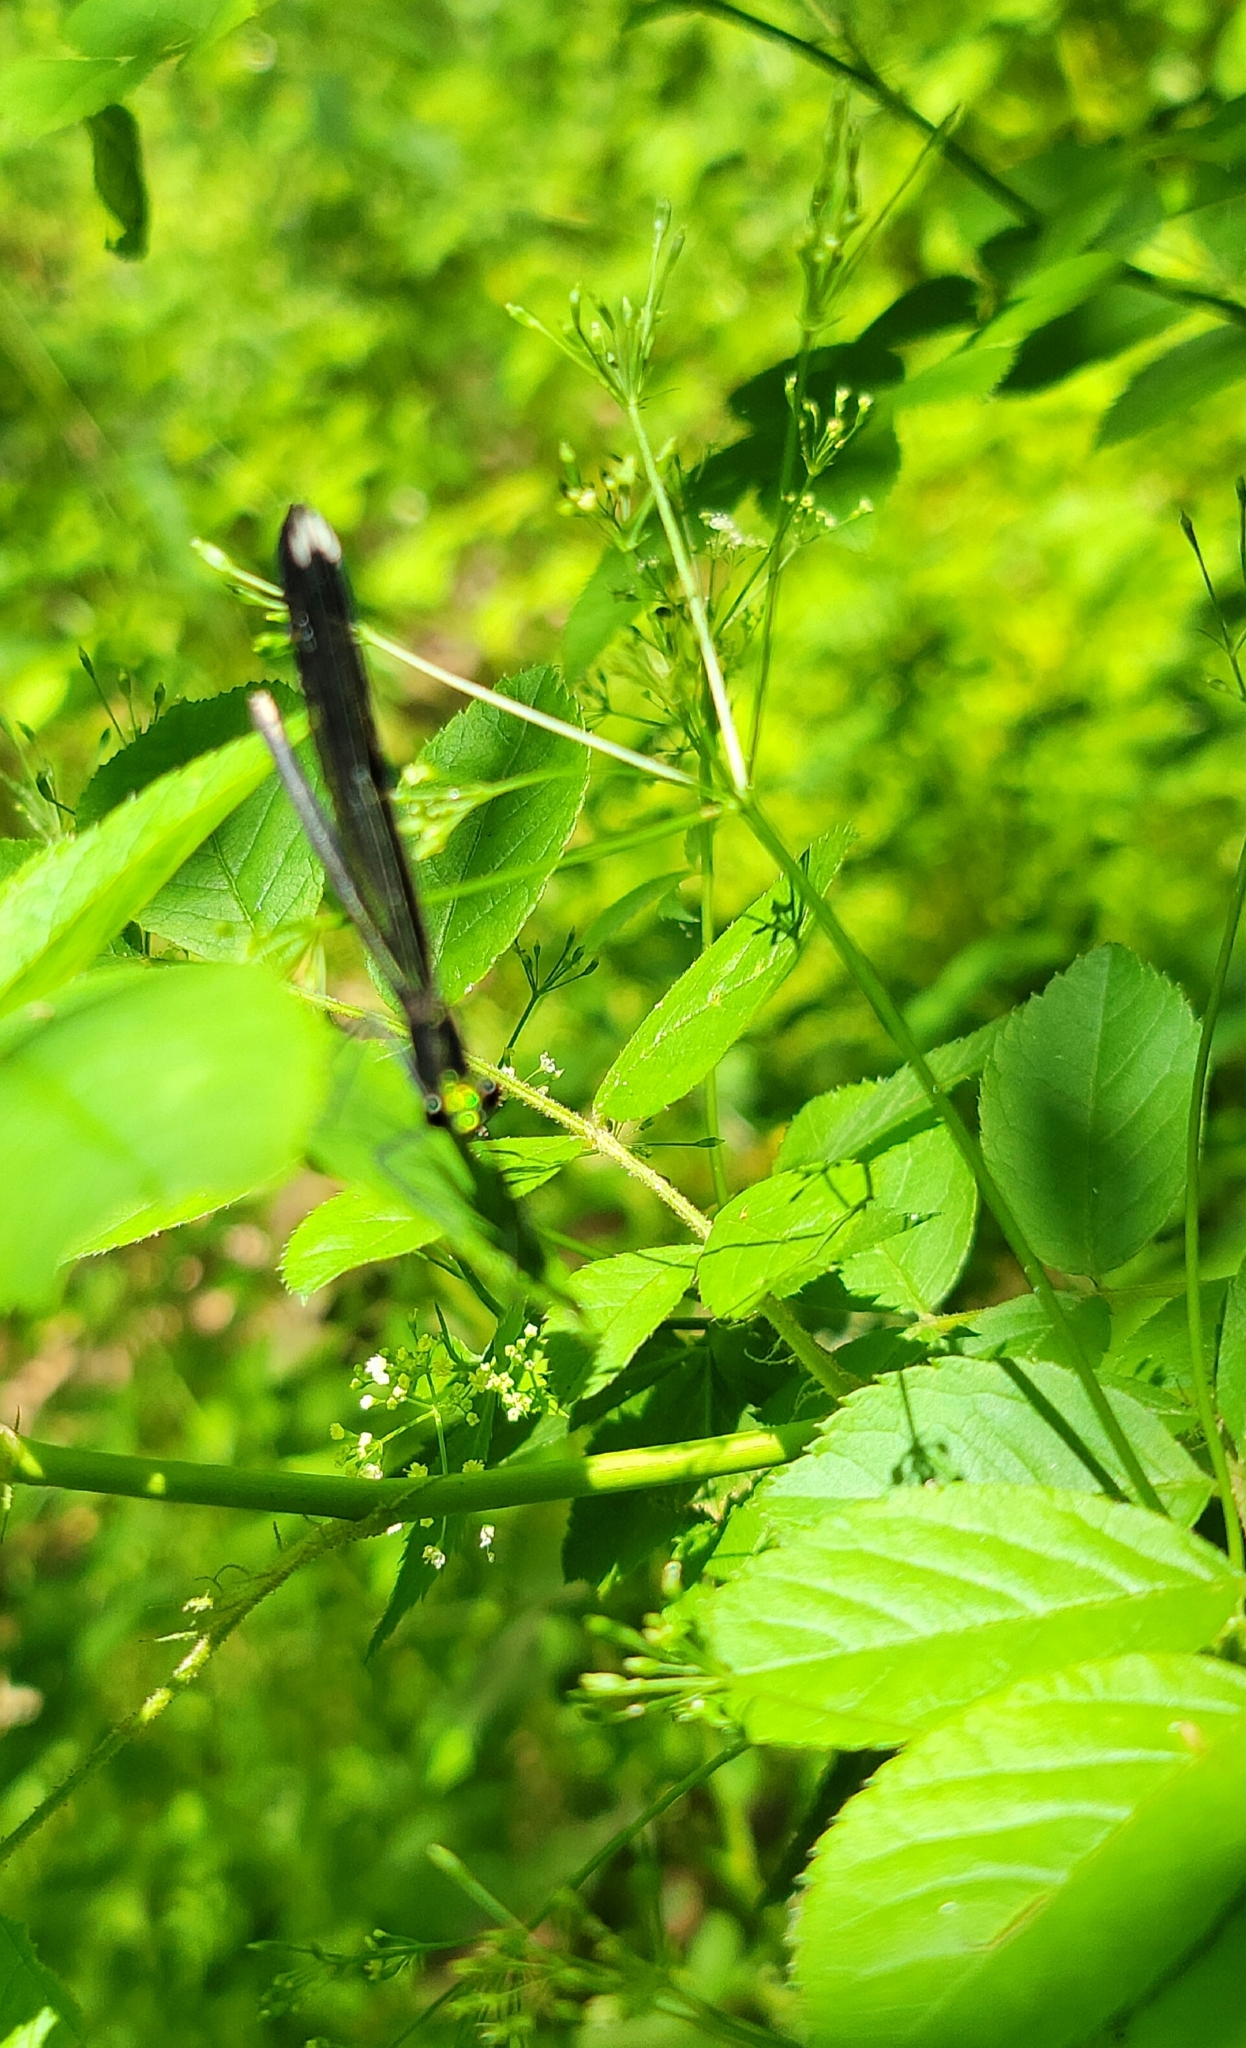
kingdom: Animalia
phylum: Arthropoda
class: Insecta
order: Odonata
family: Calopterygidae
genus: Calopteryx
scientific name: Calopteryx maculata
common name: Ebony jewelwing
